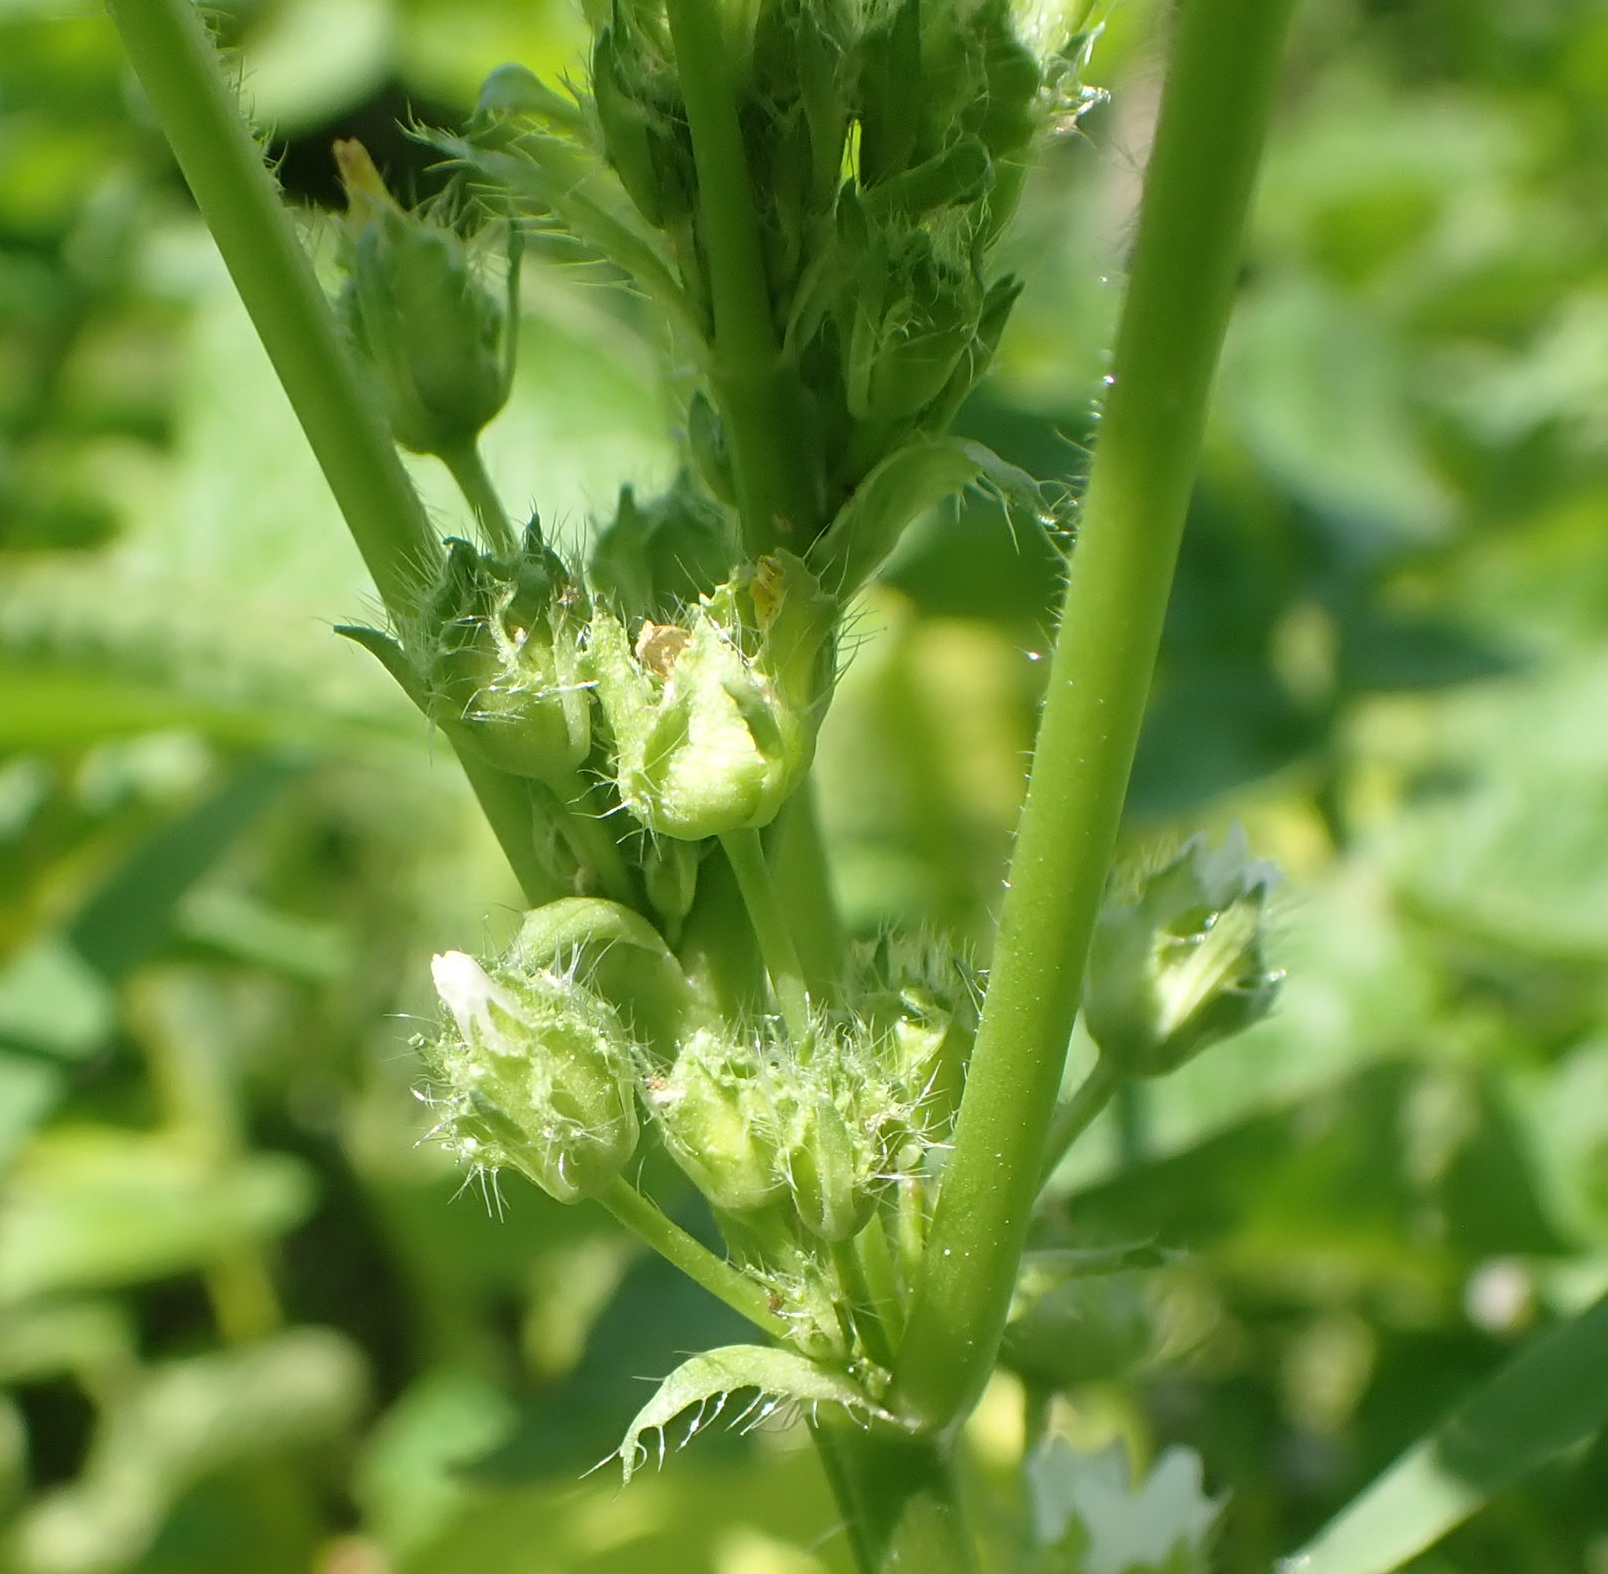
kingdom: Plantae
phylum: Tracheophyta
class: Magnoliopsida
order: Malvales
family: Malvaceae
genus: Malva
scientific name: Malva pusilla
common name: Small mallow
